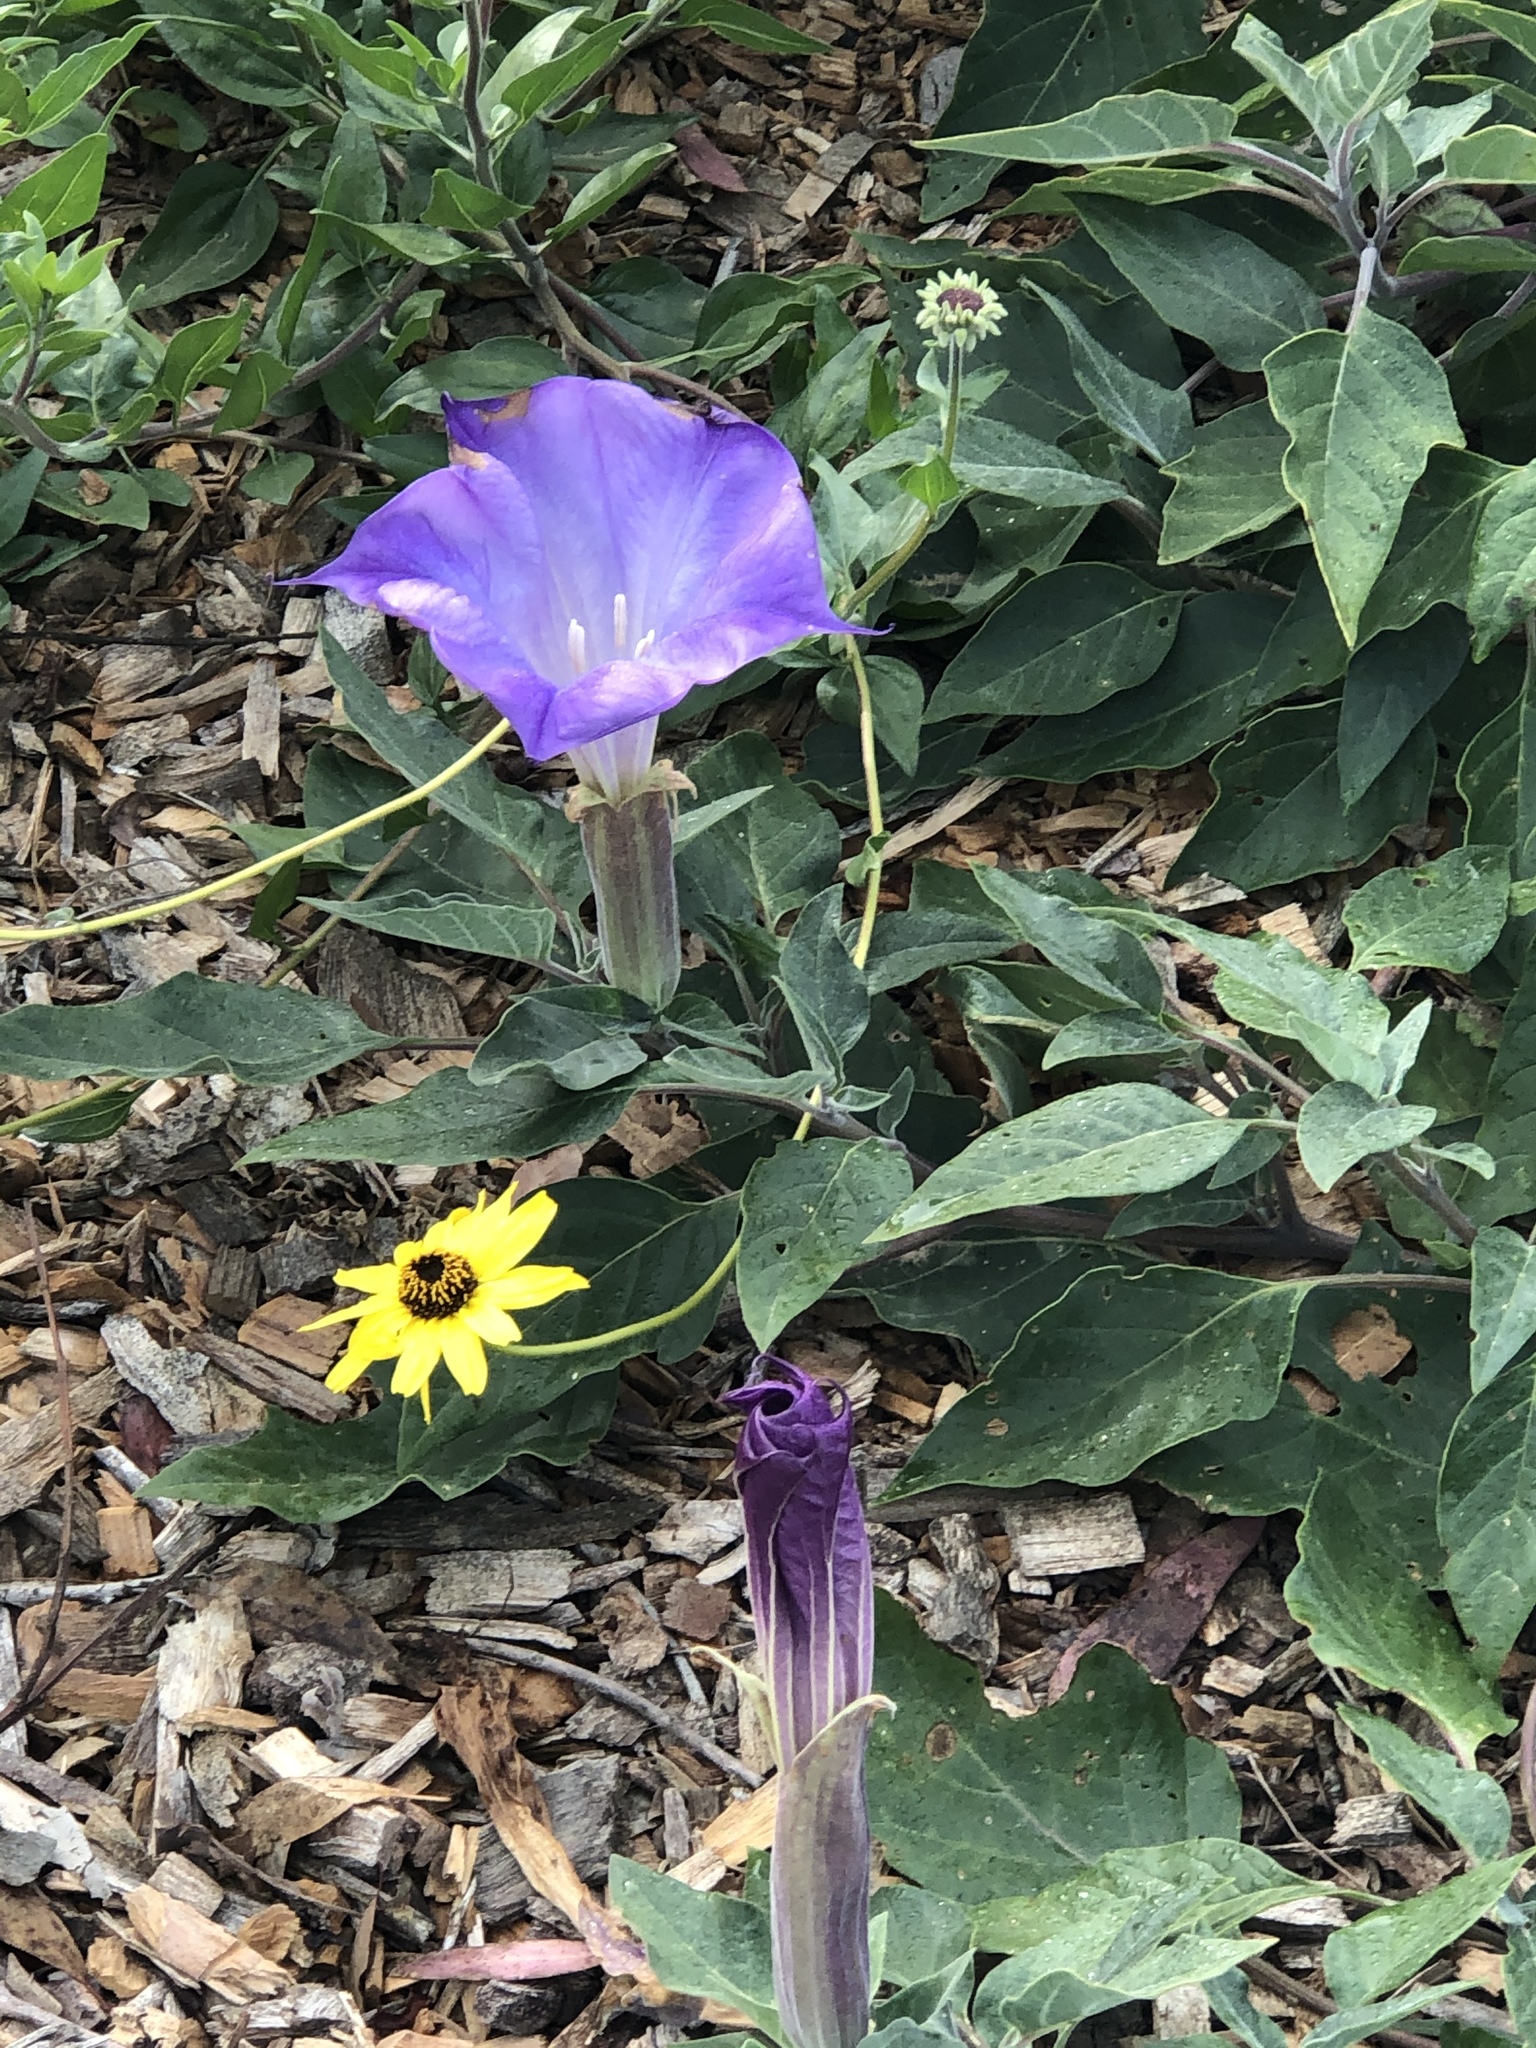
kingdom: Plantae
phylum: Tracheophyta
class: Magnoliopsida
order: Solanales
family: Solanaceae
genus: Datura
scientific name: Datura wrightii
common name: Sacred thorn-apple
